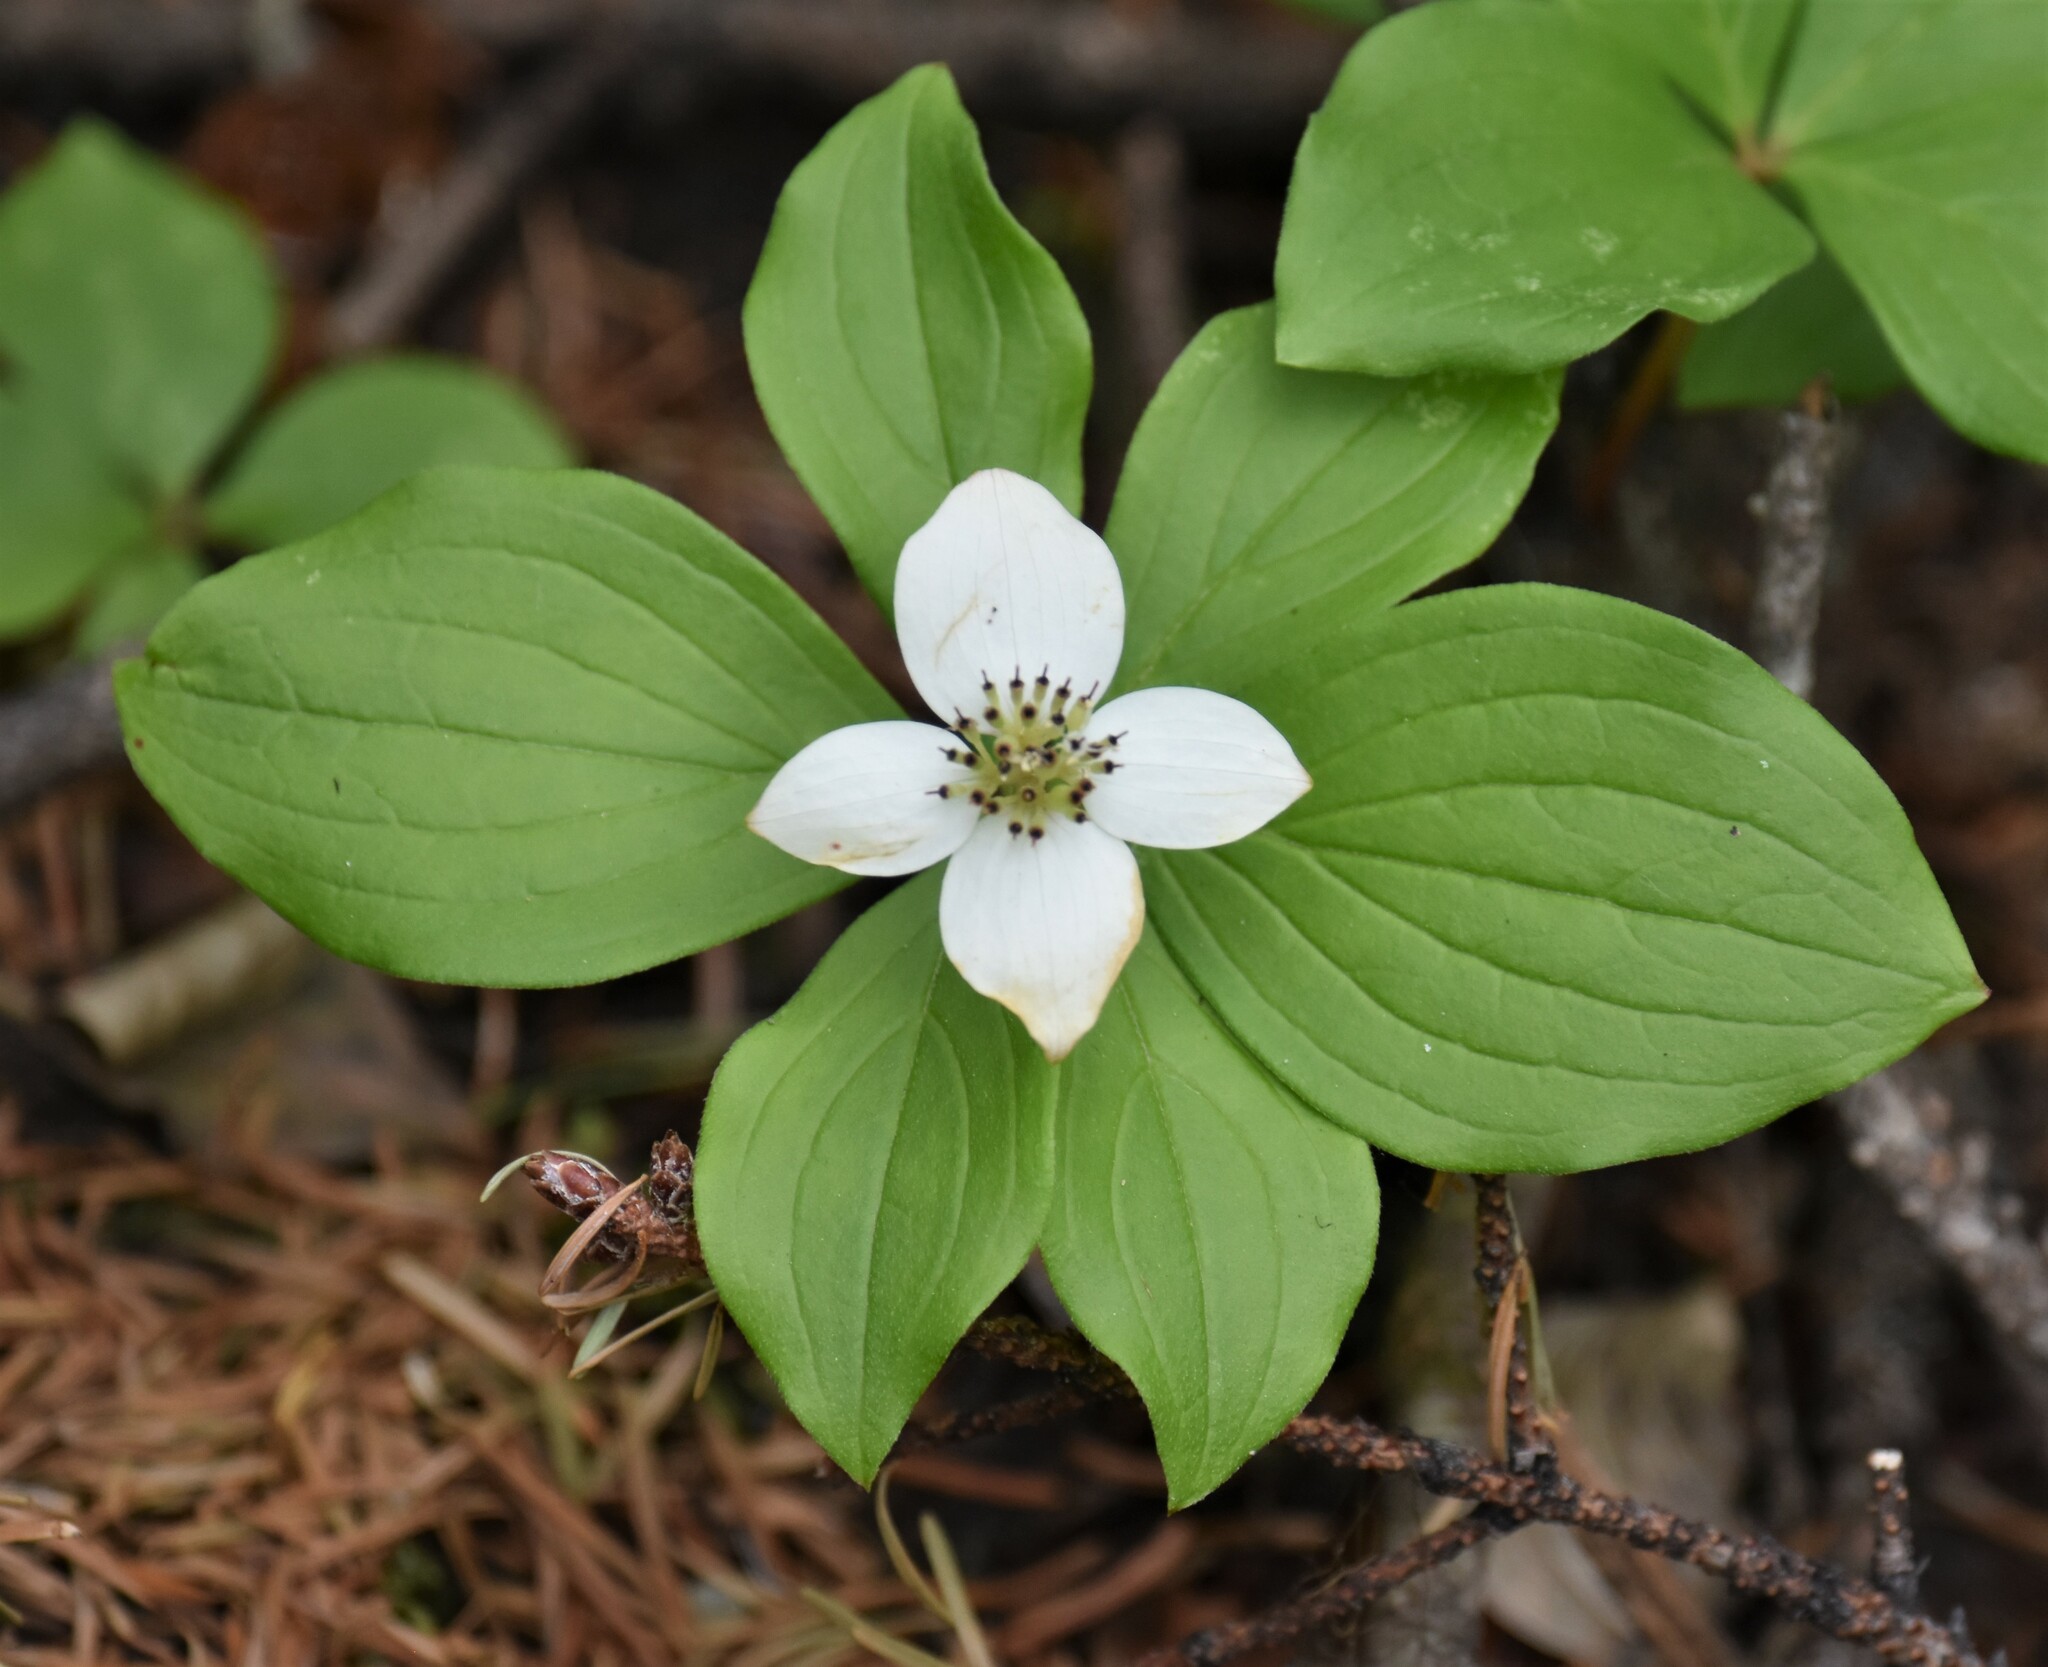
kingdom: Plantae
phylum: Tracheophyta
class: Magnoliopsida
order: Cornales
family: Cornaceae
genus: Cornus
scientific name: Cornus canadensis
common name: Creeping dogwood
